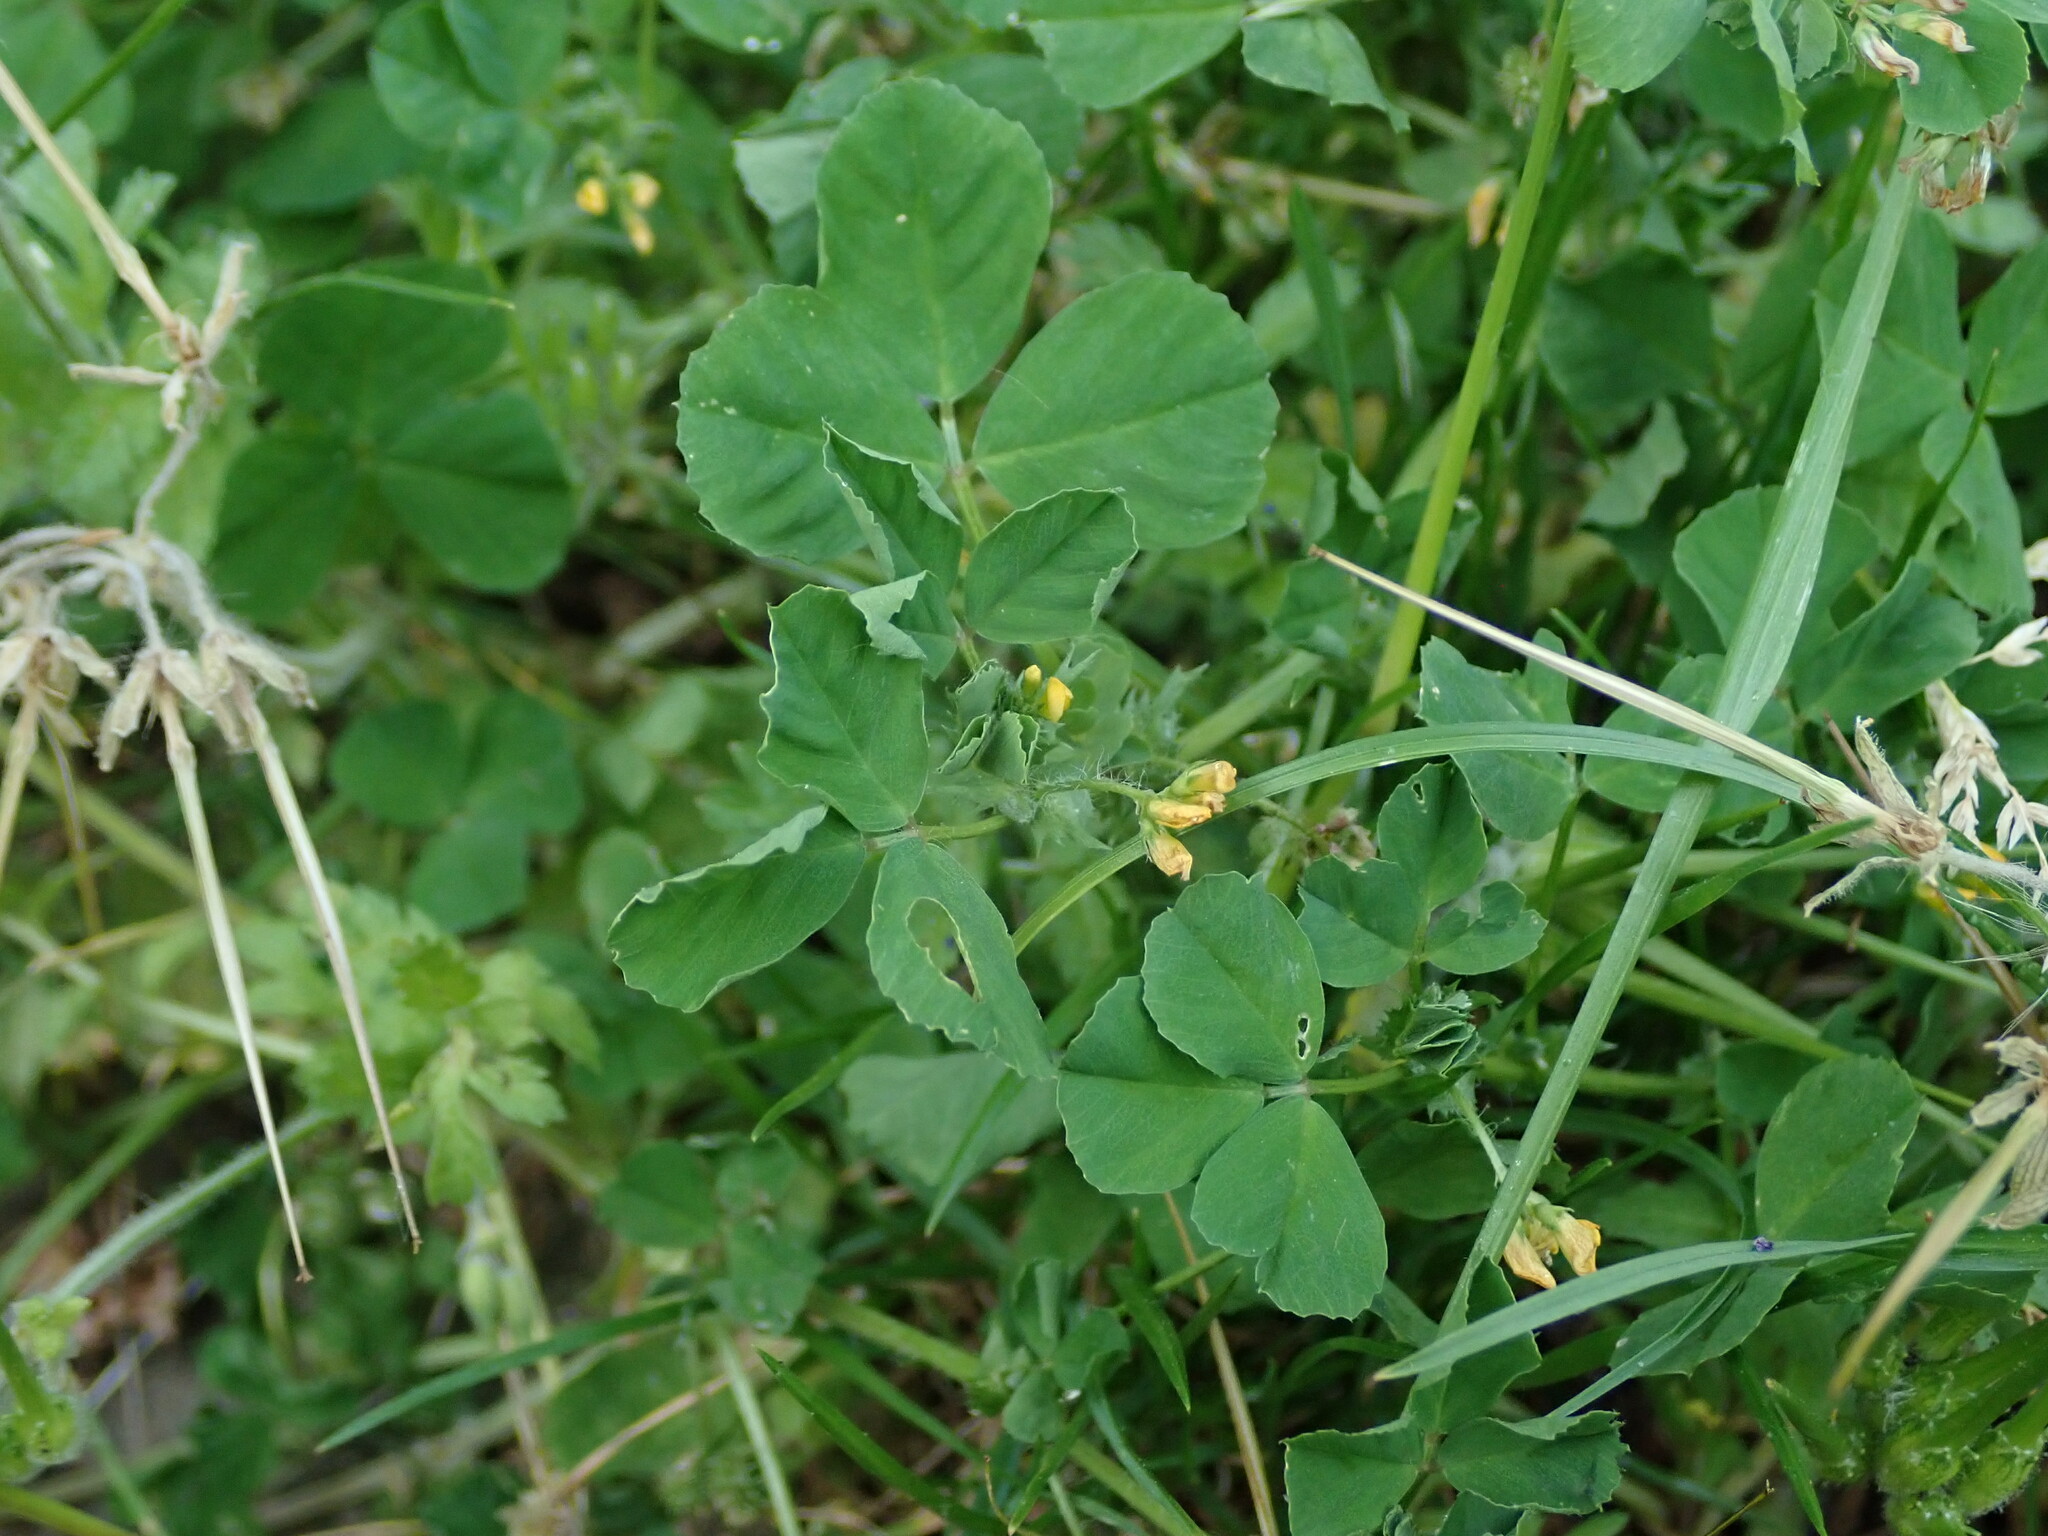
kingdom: Plantae
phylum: Tracheophyta
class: Magnoliopsida
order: Fabales
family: Fabaceae
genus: Medicago
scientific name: Medicago arabica
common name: Spotted medick
